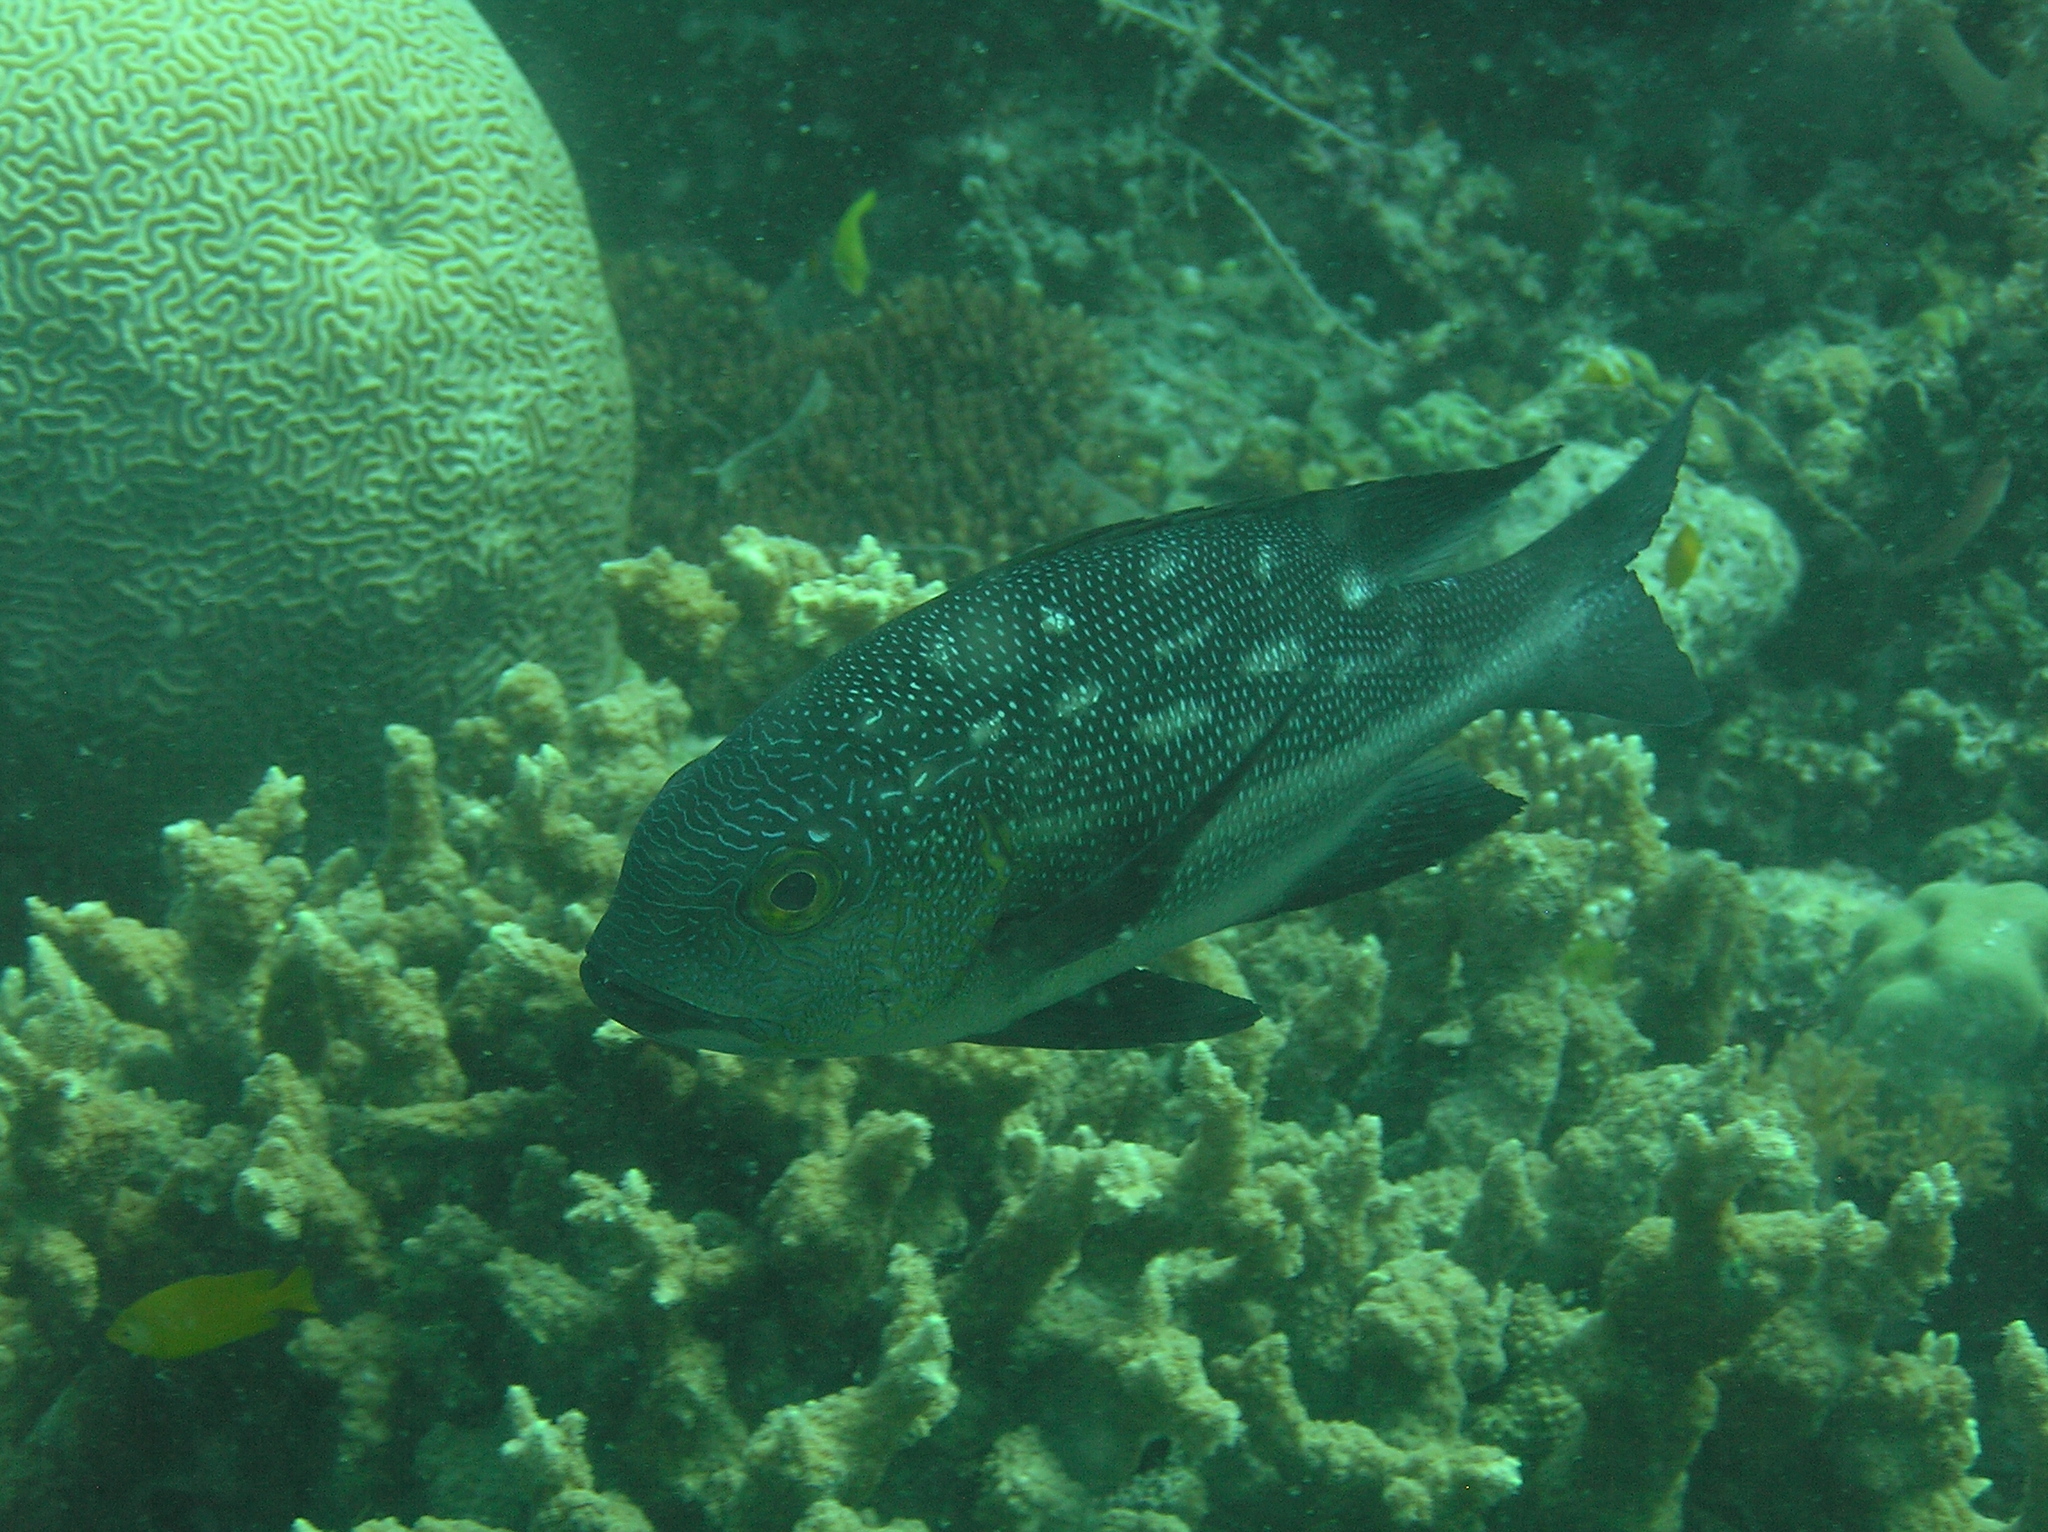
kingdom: Animalia
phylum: Chordata
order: Perciformes
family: Lutjanidae
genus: Macolor
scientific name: Macolor macularis
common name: Midnight snapper
